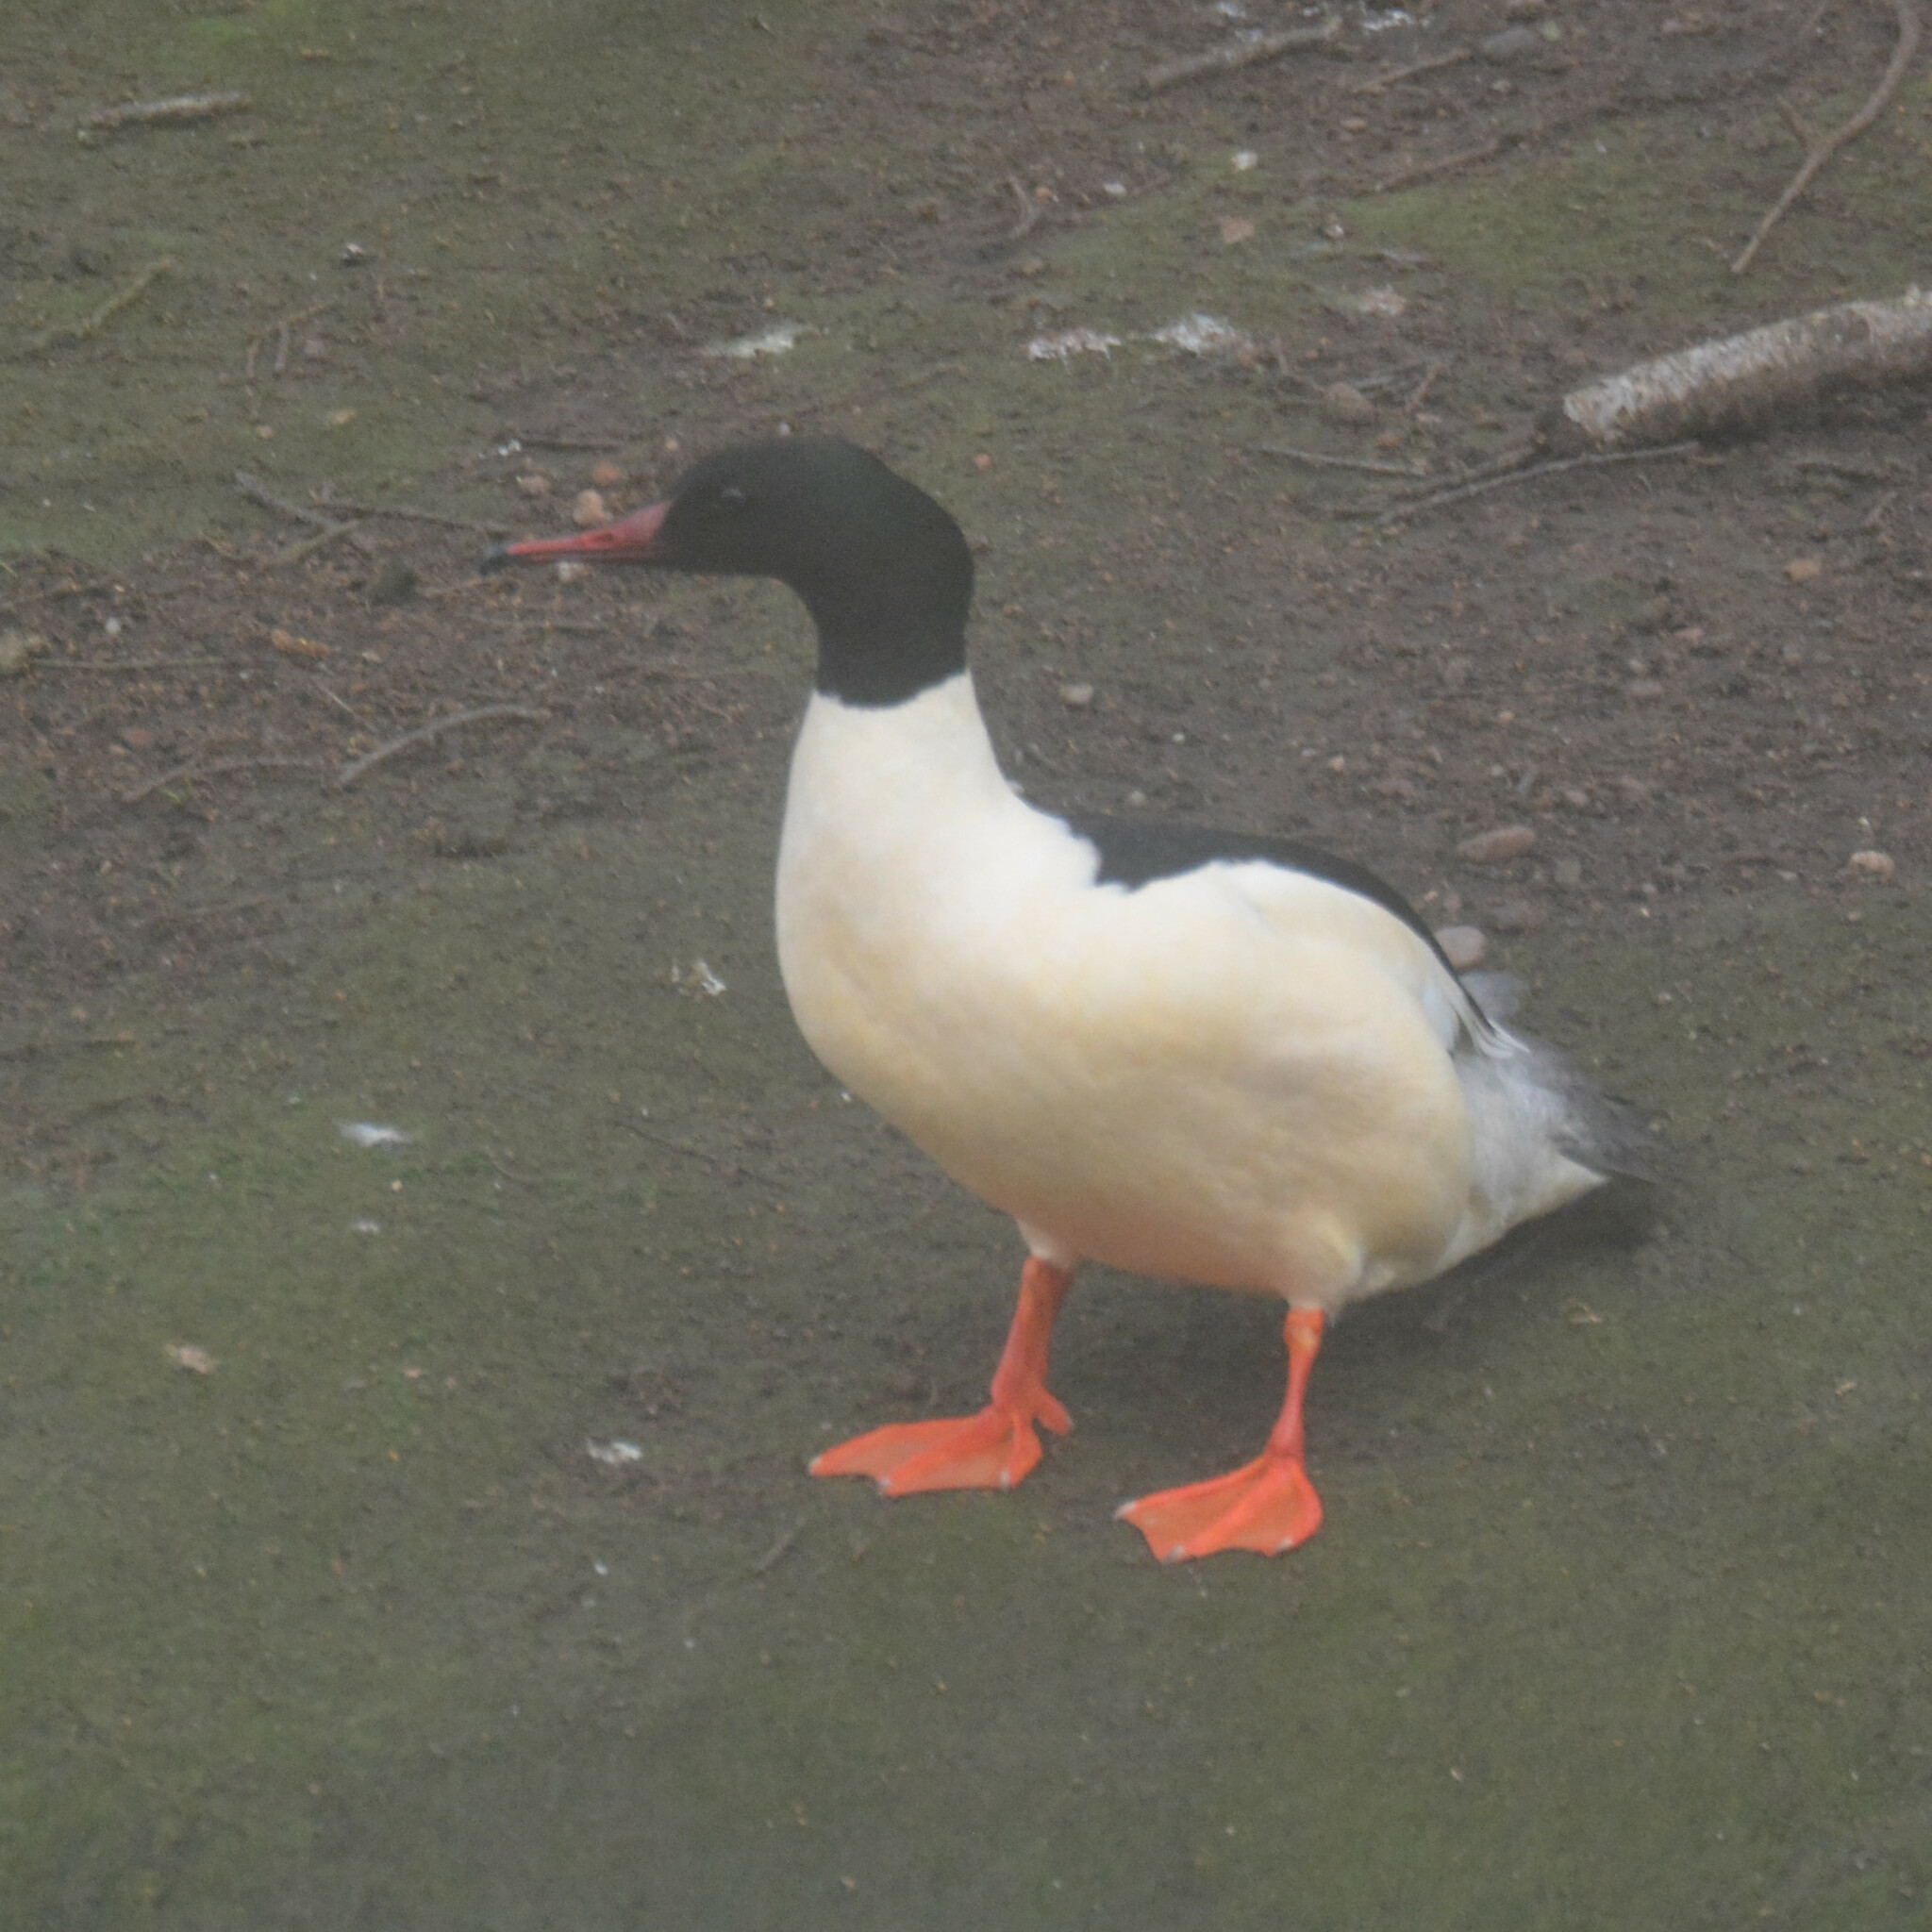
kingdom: Animalia
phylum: Chordata
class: Aves
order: Anseriformes
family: Anatidae
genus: Mergus
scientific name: Mergus merganser
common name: Common merganser
